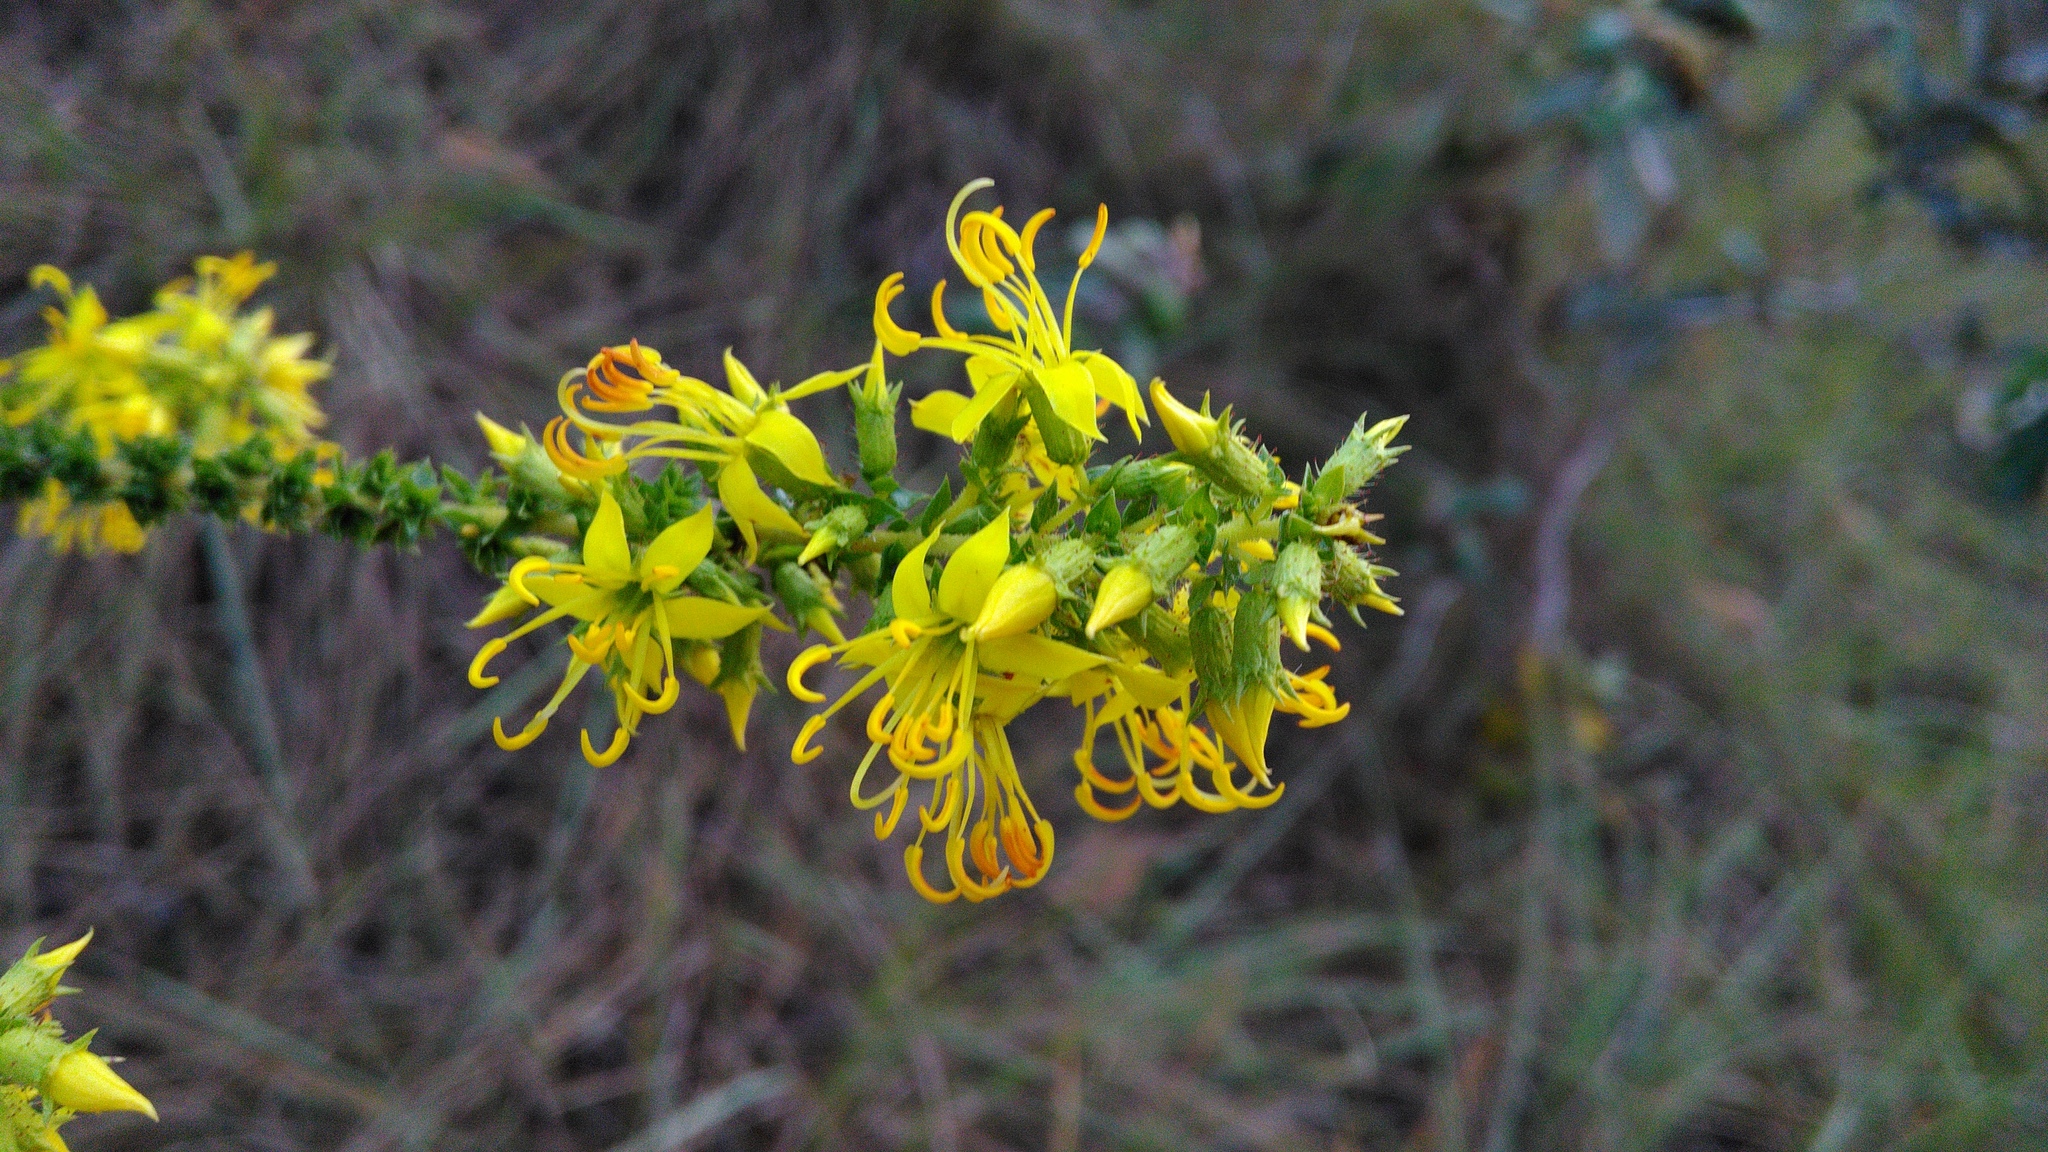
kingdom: Plantae
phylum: Tracheophyta
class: Magnoliopsida
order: Myrtales
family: Melastomataceae
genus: Cambessedesia
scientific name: Cambessedesia espora
